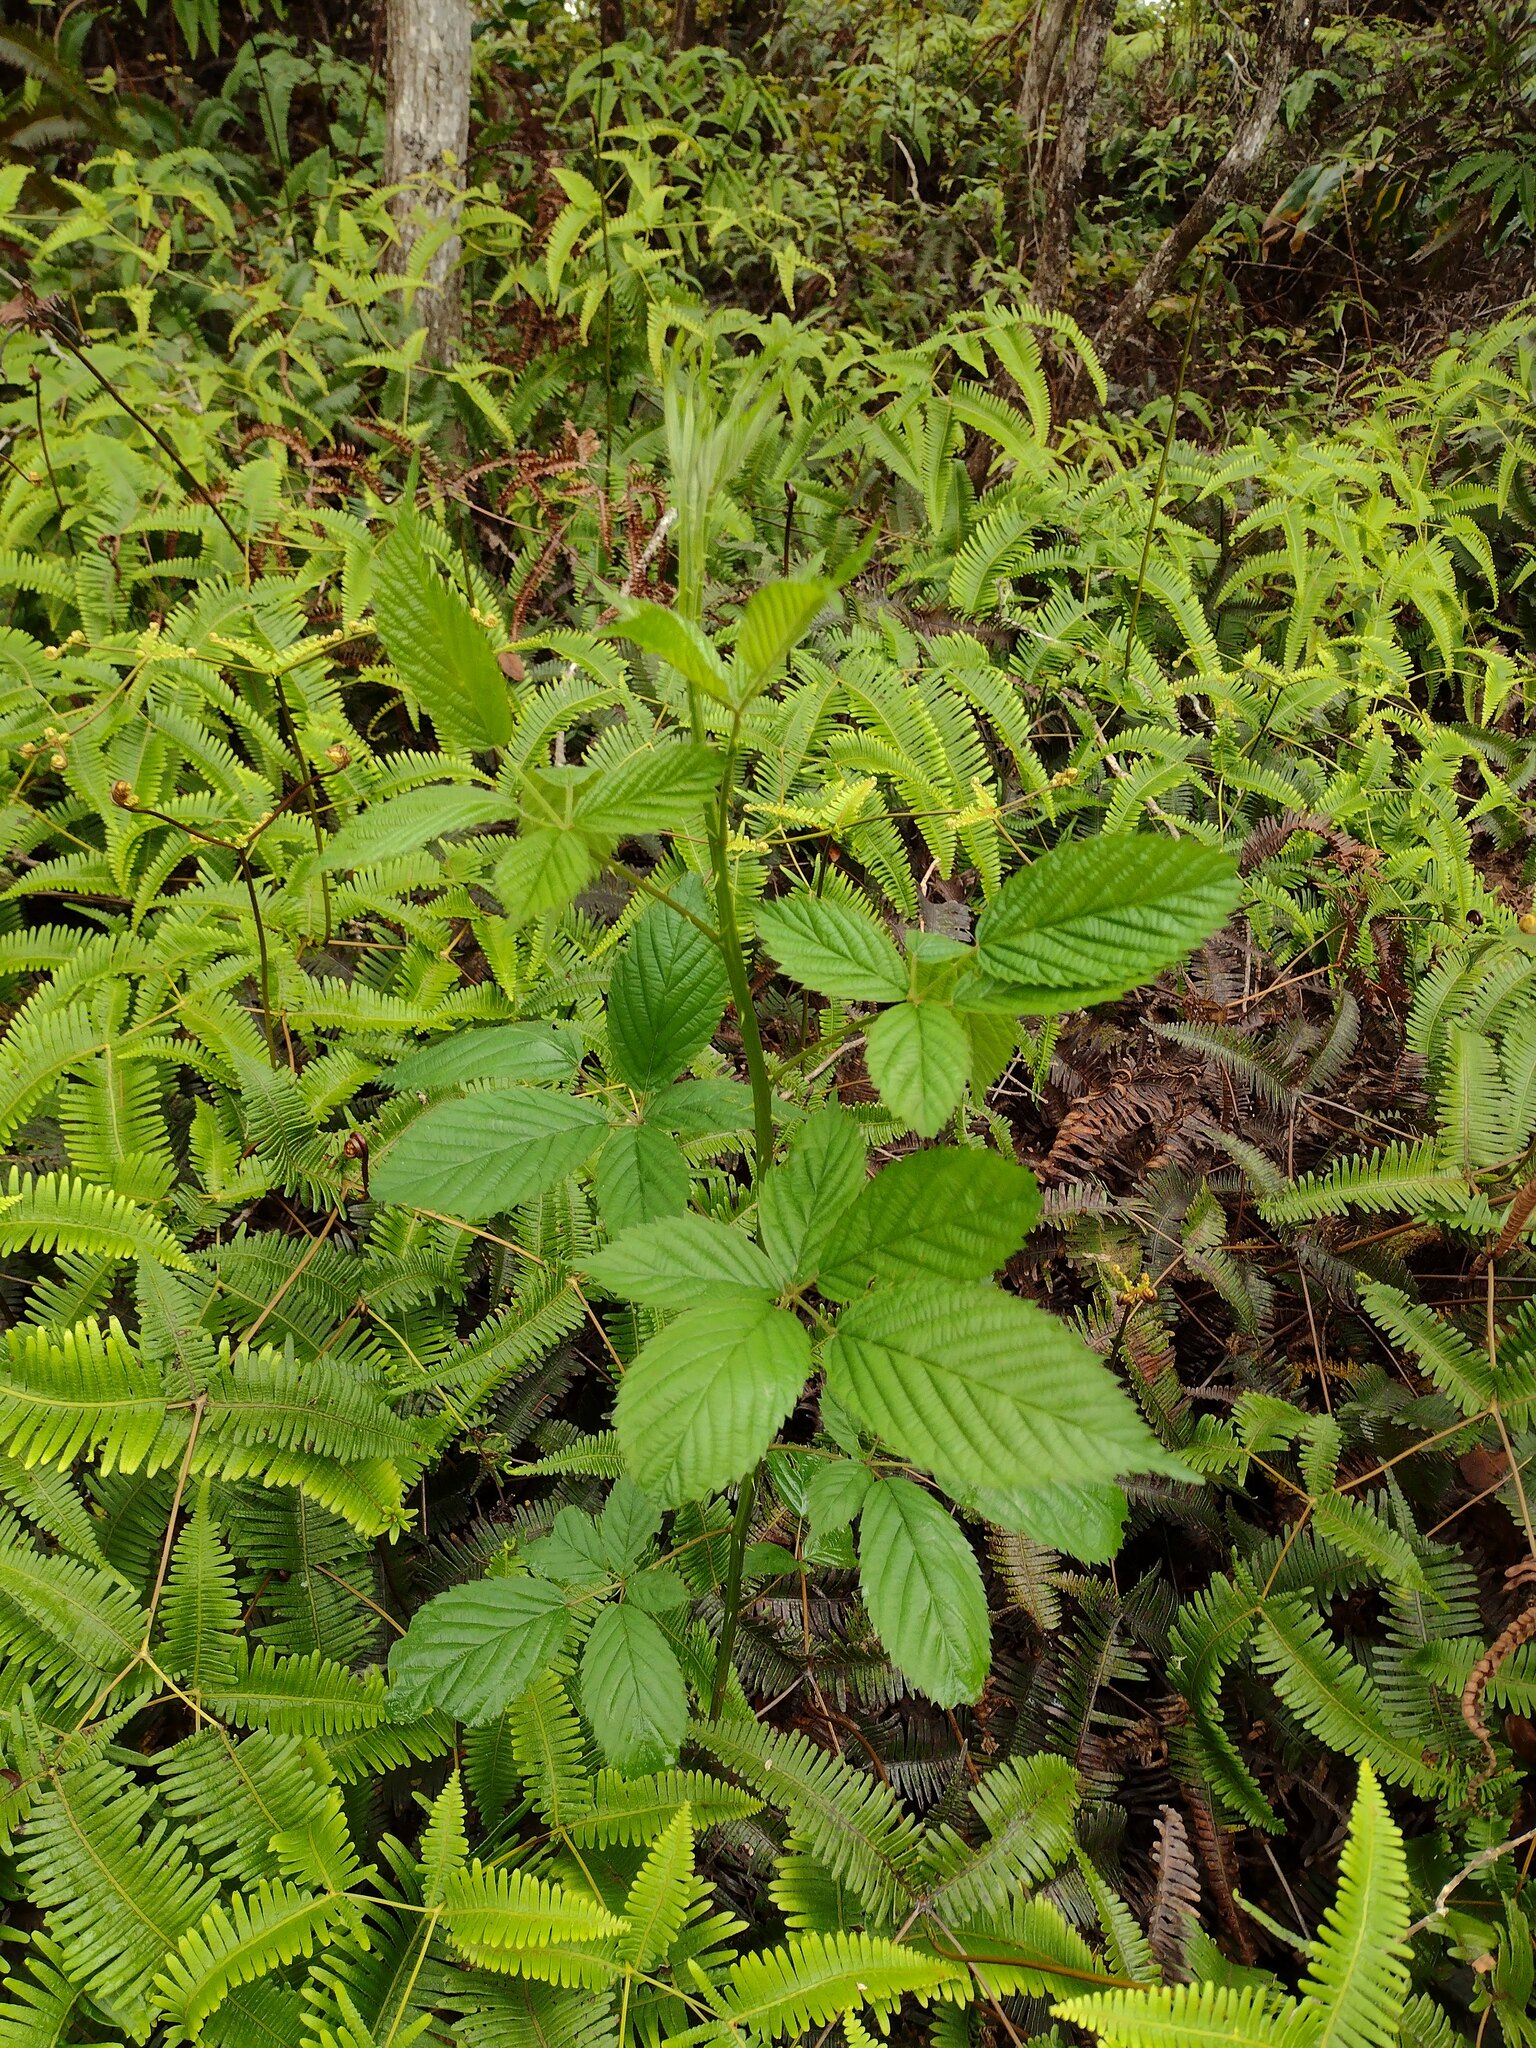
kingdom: Plantae
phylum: Tracheophyta
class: Magnoliopsida
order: Rosales
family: Rosaceae
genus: Rubus
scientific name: Rubus argutus
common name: Sawtooth blackberry
